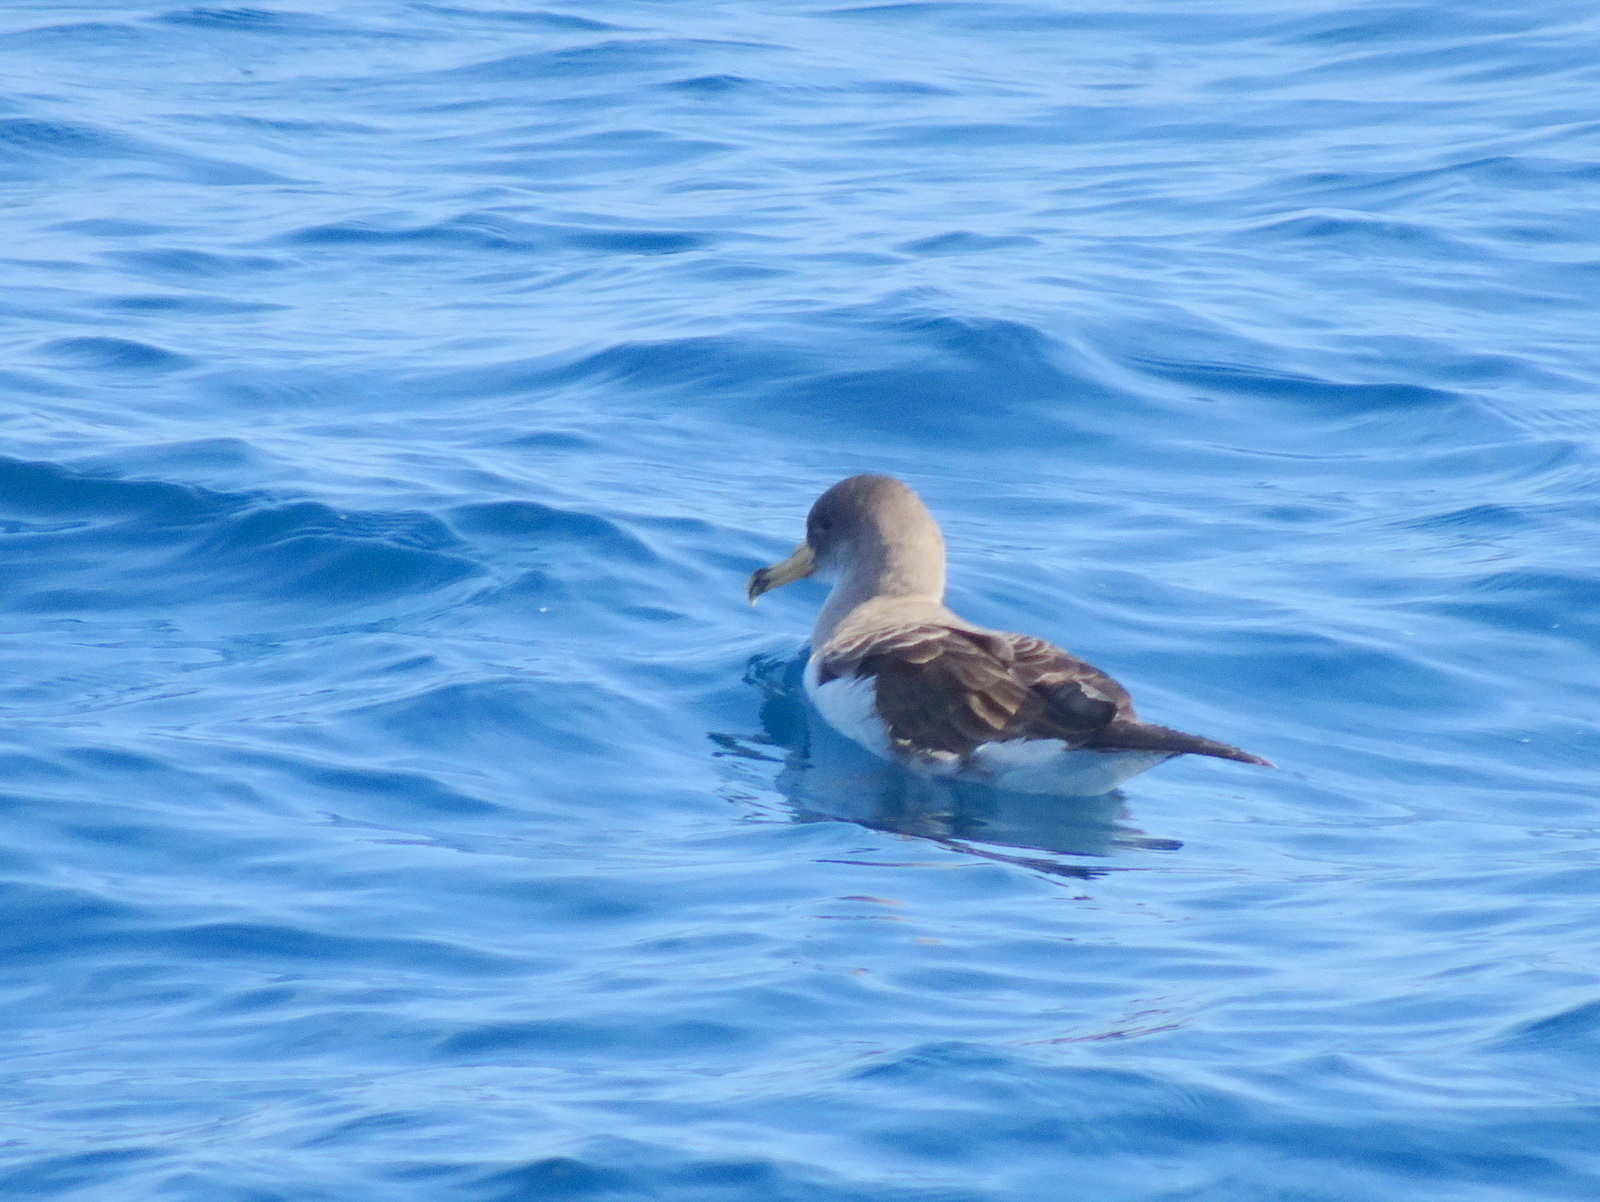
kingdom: Animalia
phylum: Chordata
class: Aves
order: Procellariiformes
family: Procellariidae
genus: Calonectris
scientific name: Calonectris diomedea
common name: Cory's shearwater
